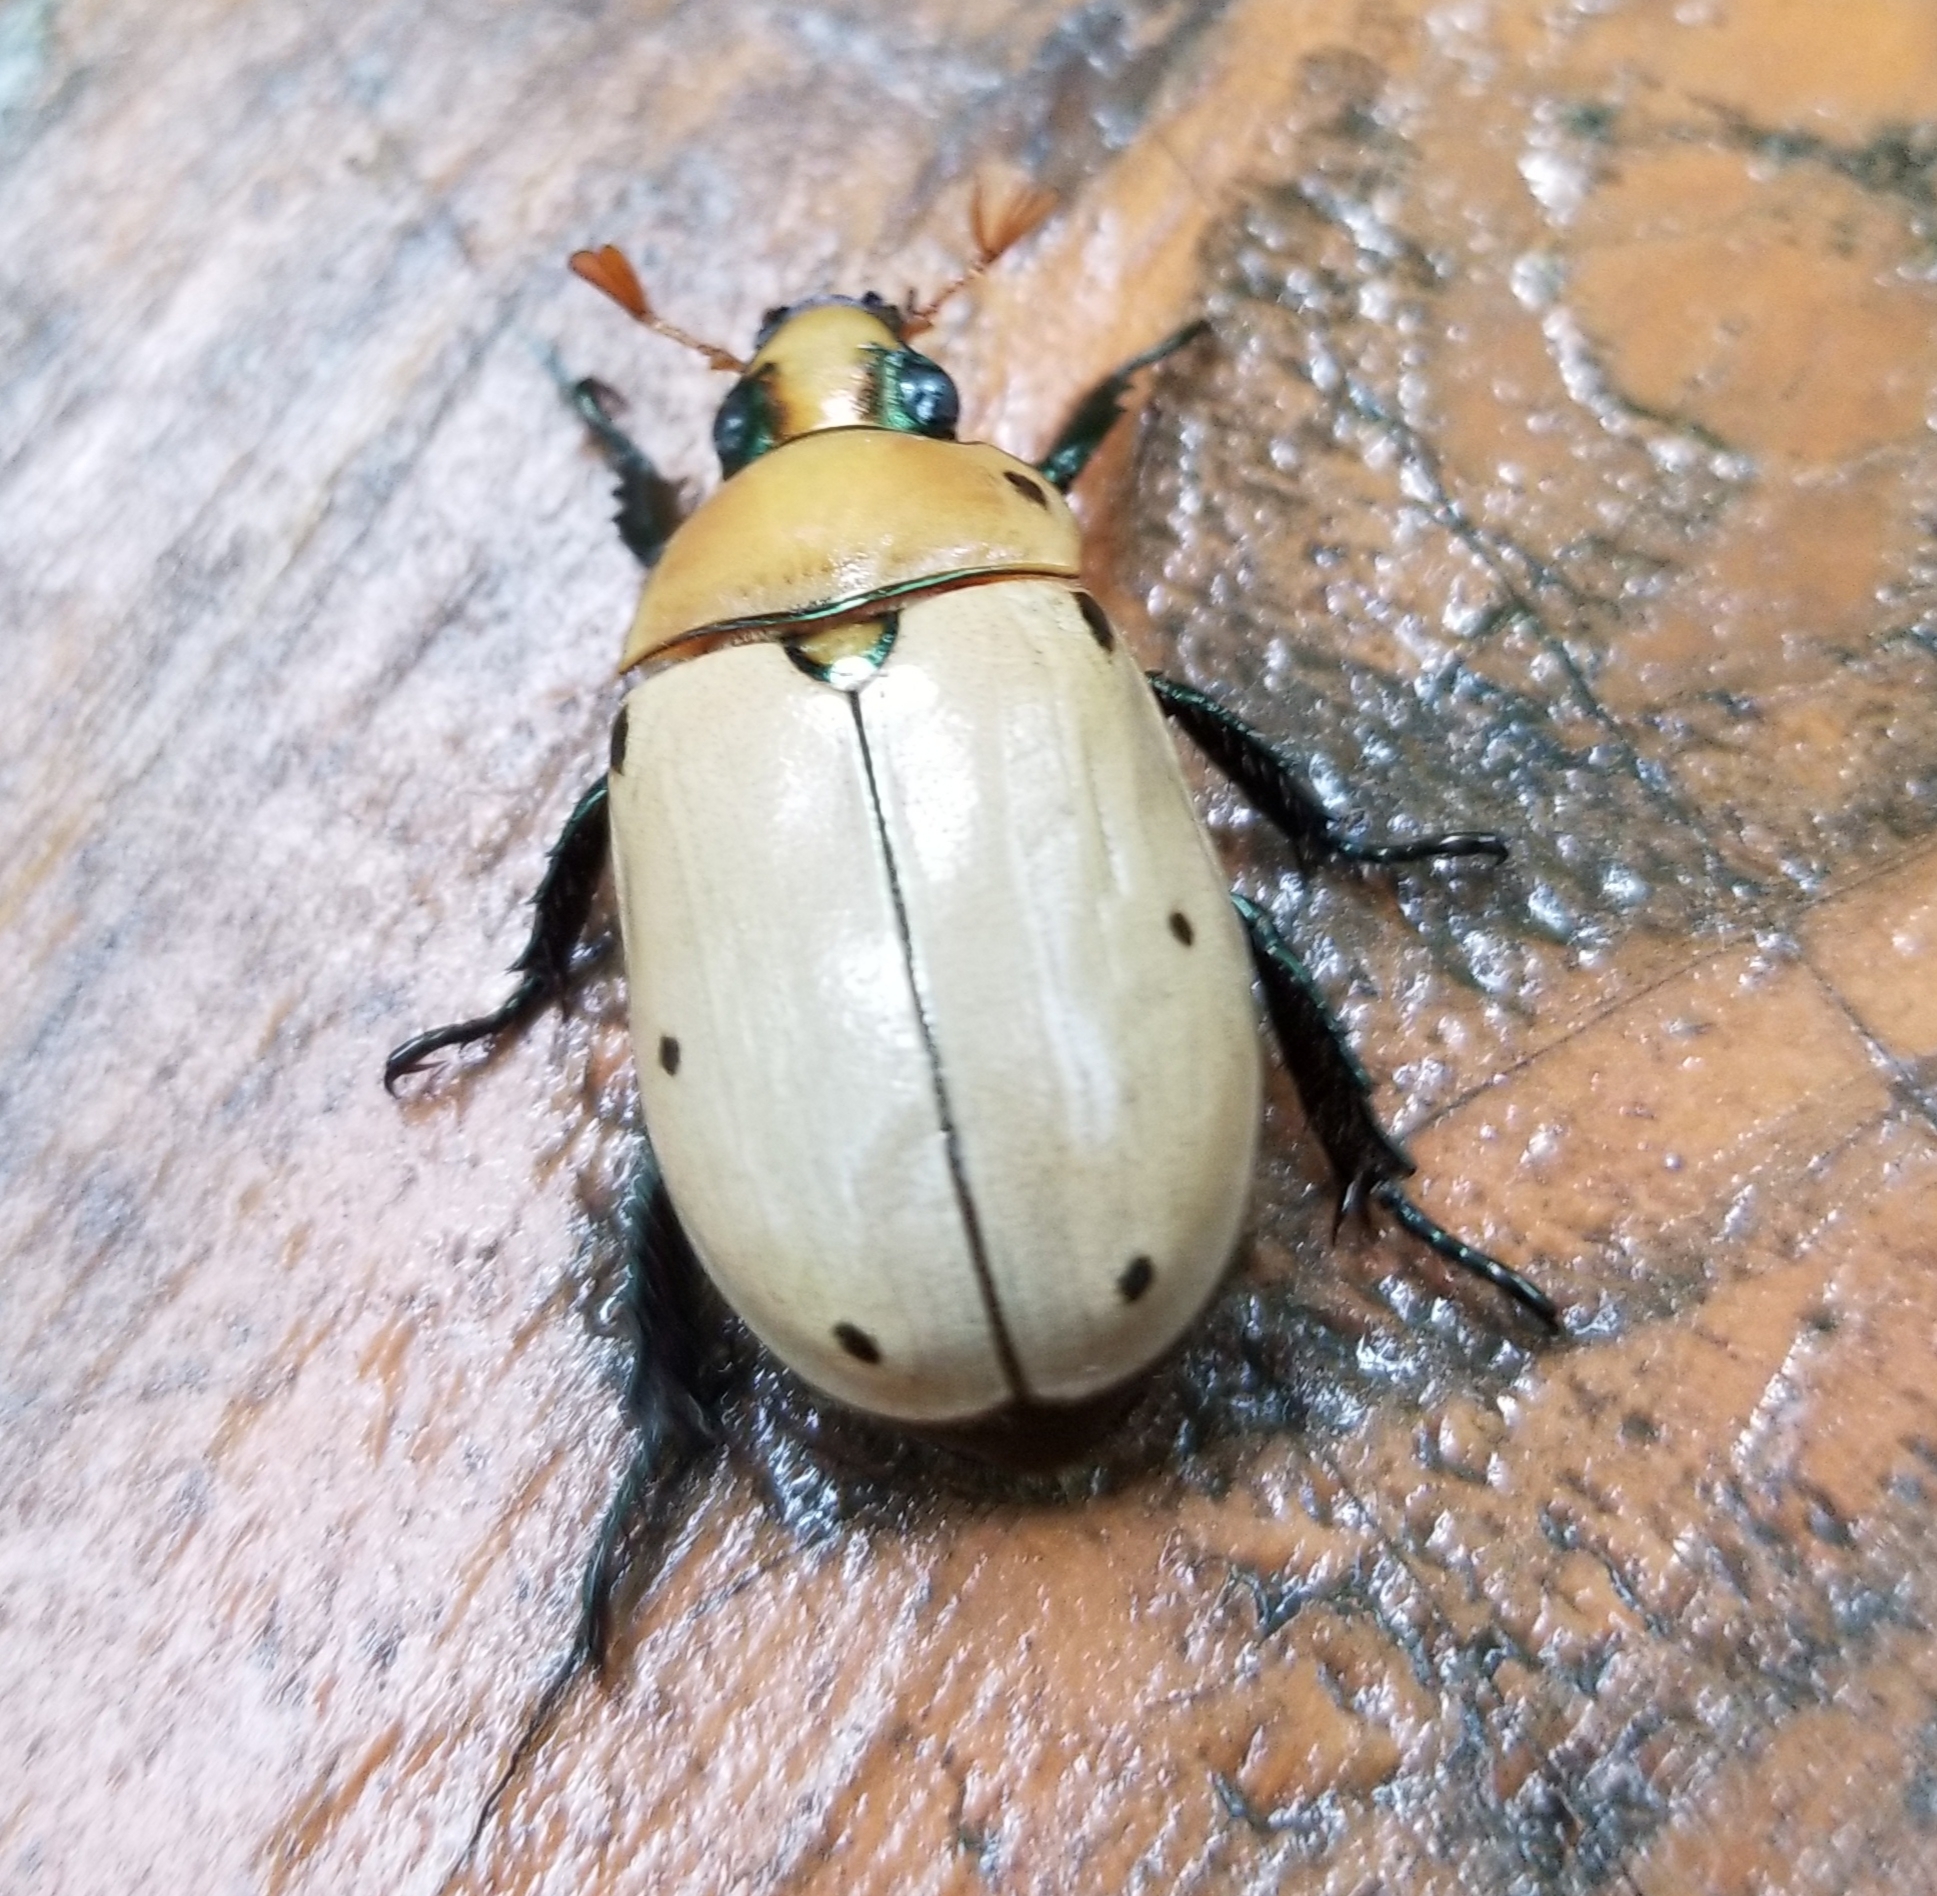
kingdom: Animalia
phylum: Arthropoda
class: Insecta
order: Coleoptera
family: Scarabaeidae
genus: Pelidnota
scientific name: Pelidnota punctata
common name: Grapevine beetle
